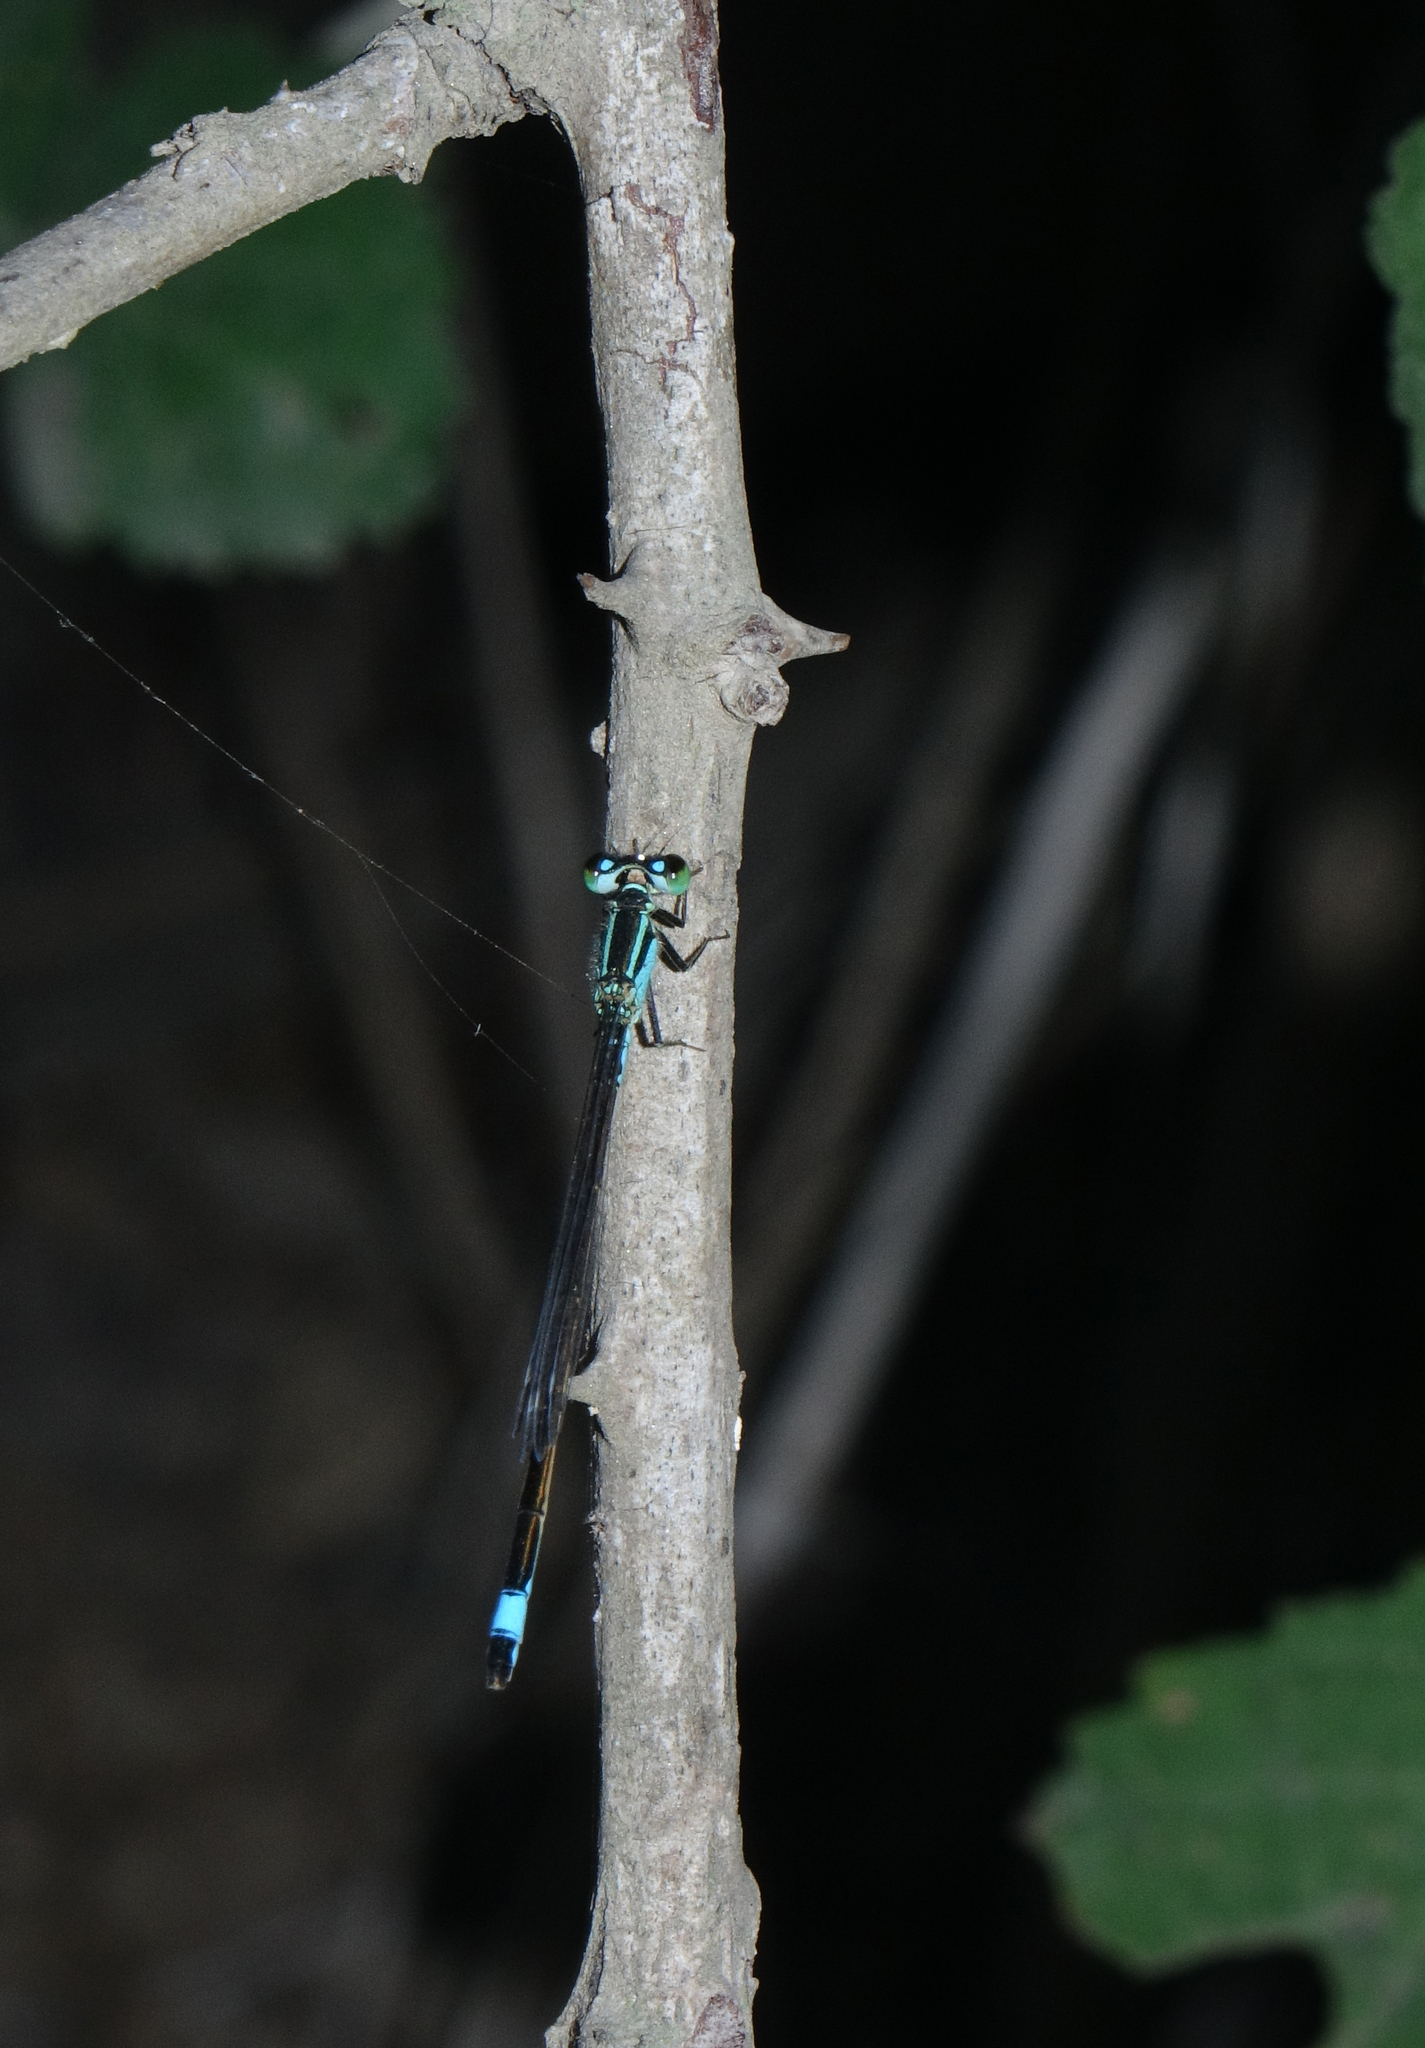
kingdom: Animalia
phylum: Arthropoda
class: Insecta
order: Odonata
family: Coenagrionidae
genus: Ischnura
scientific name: Ischnura elegans
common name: Blue-tailed damselfly
